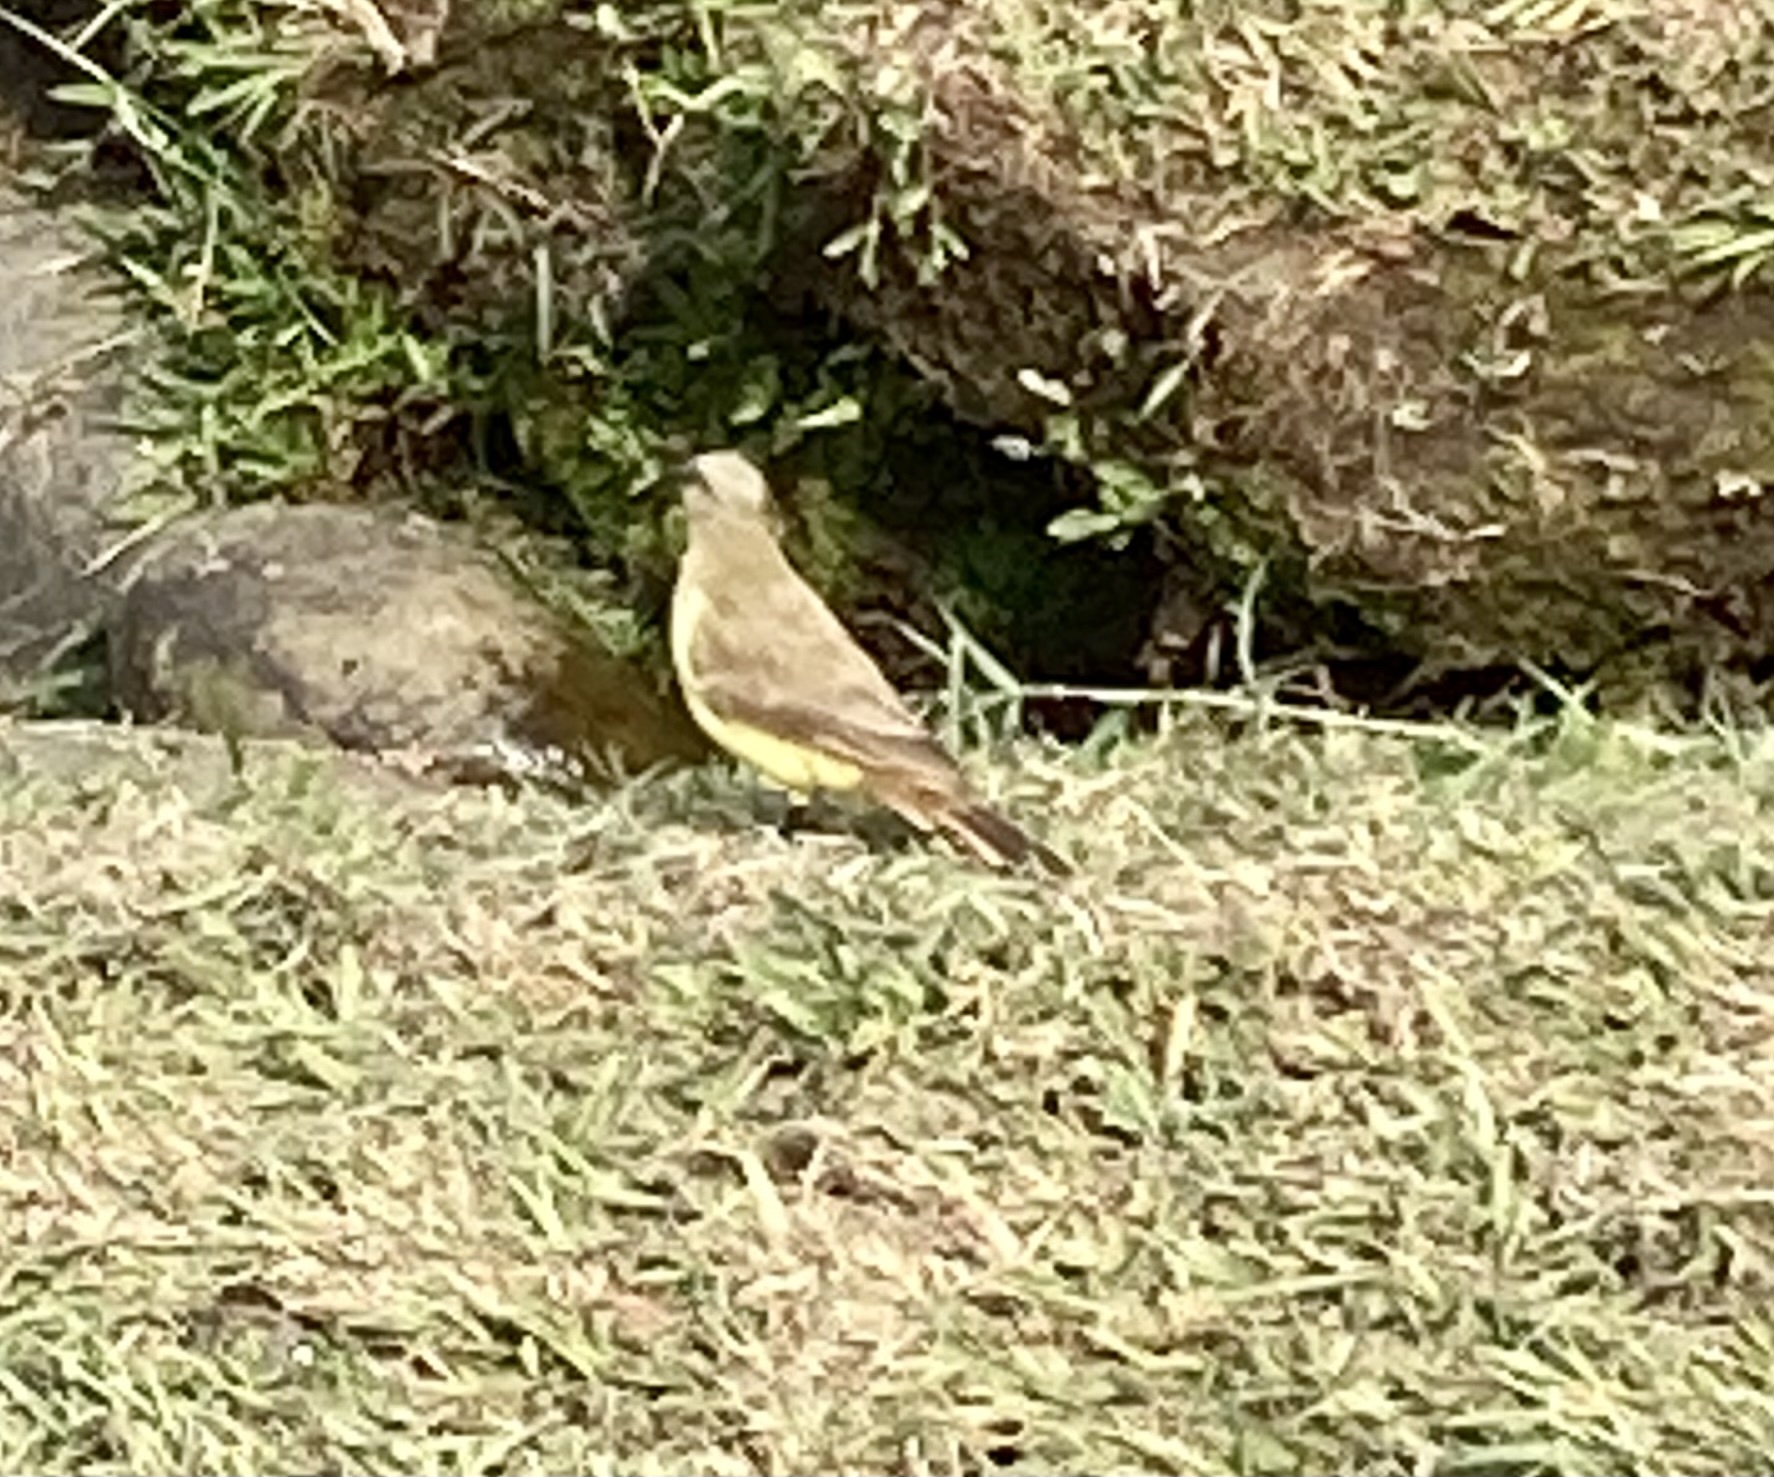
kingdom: Animalia
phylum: Chordata
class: Aves
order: Passeriformes
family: Tyrannidae
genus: Machetornis
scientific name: Machetornis rixosa
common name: Cattle tyrant
